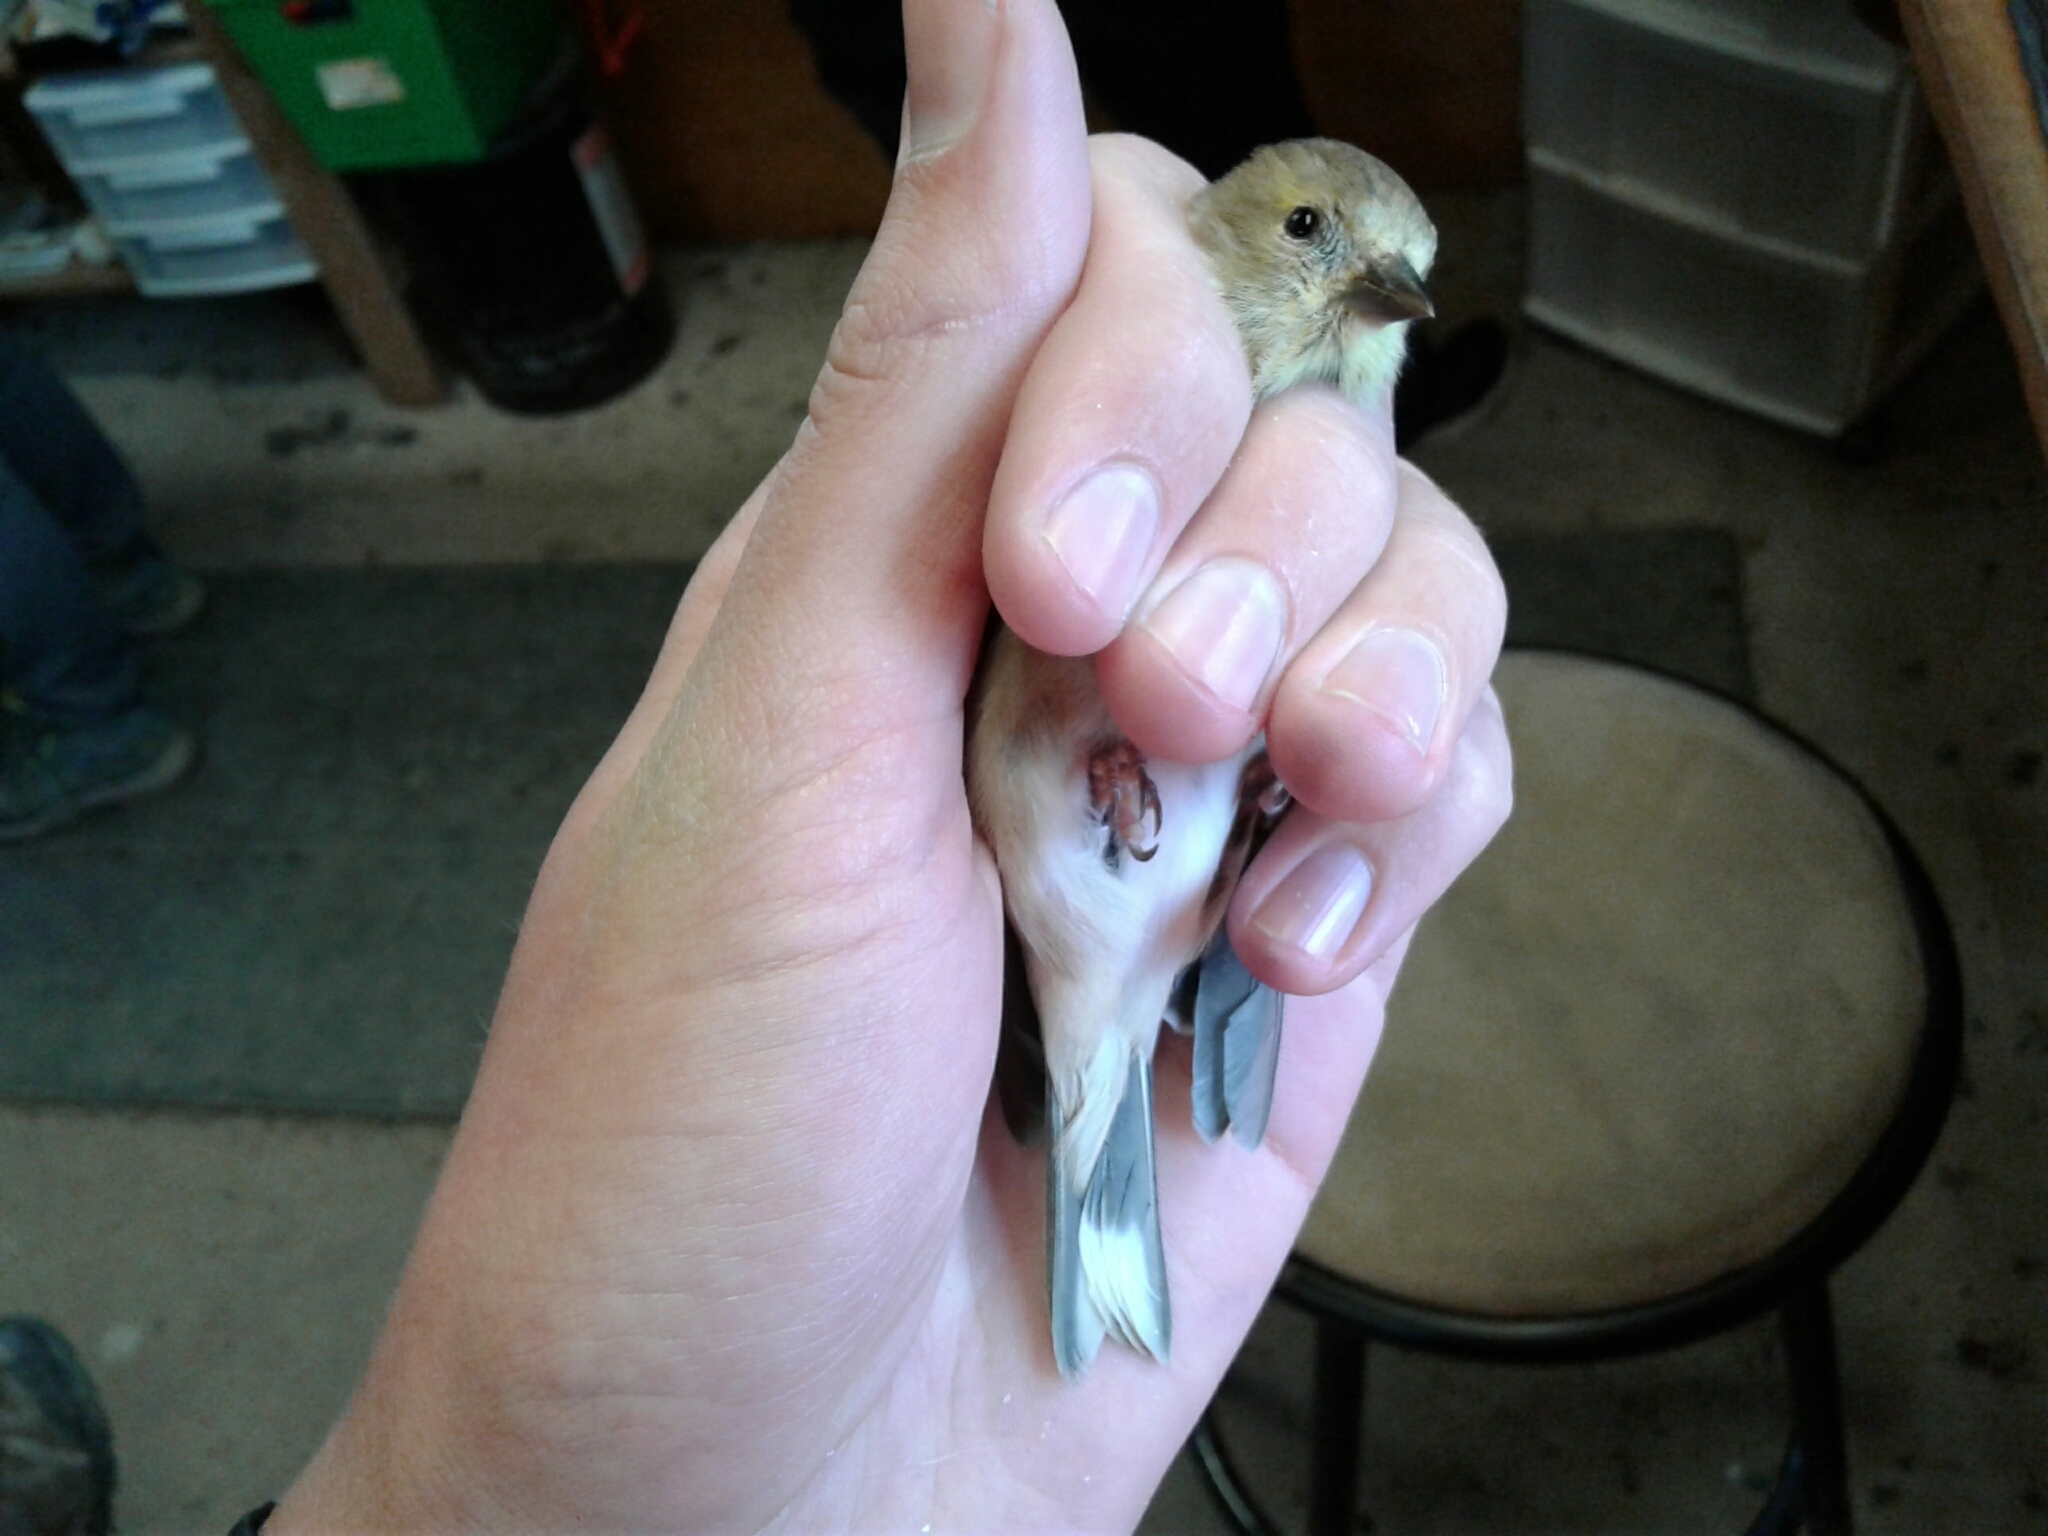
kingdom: Animalia
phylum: Chordata
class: Aves
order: Passeriformes
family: Fringillidae
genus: Spinus
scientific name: Spinus tristis
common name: American goldfinch
